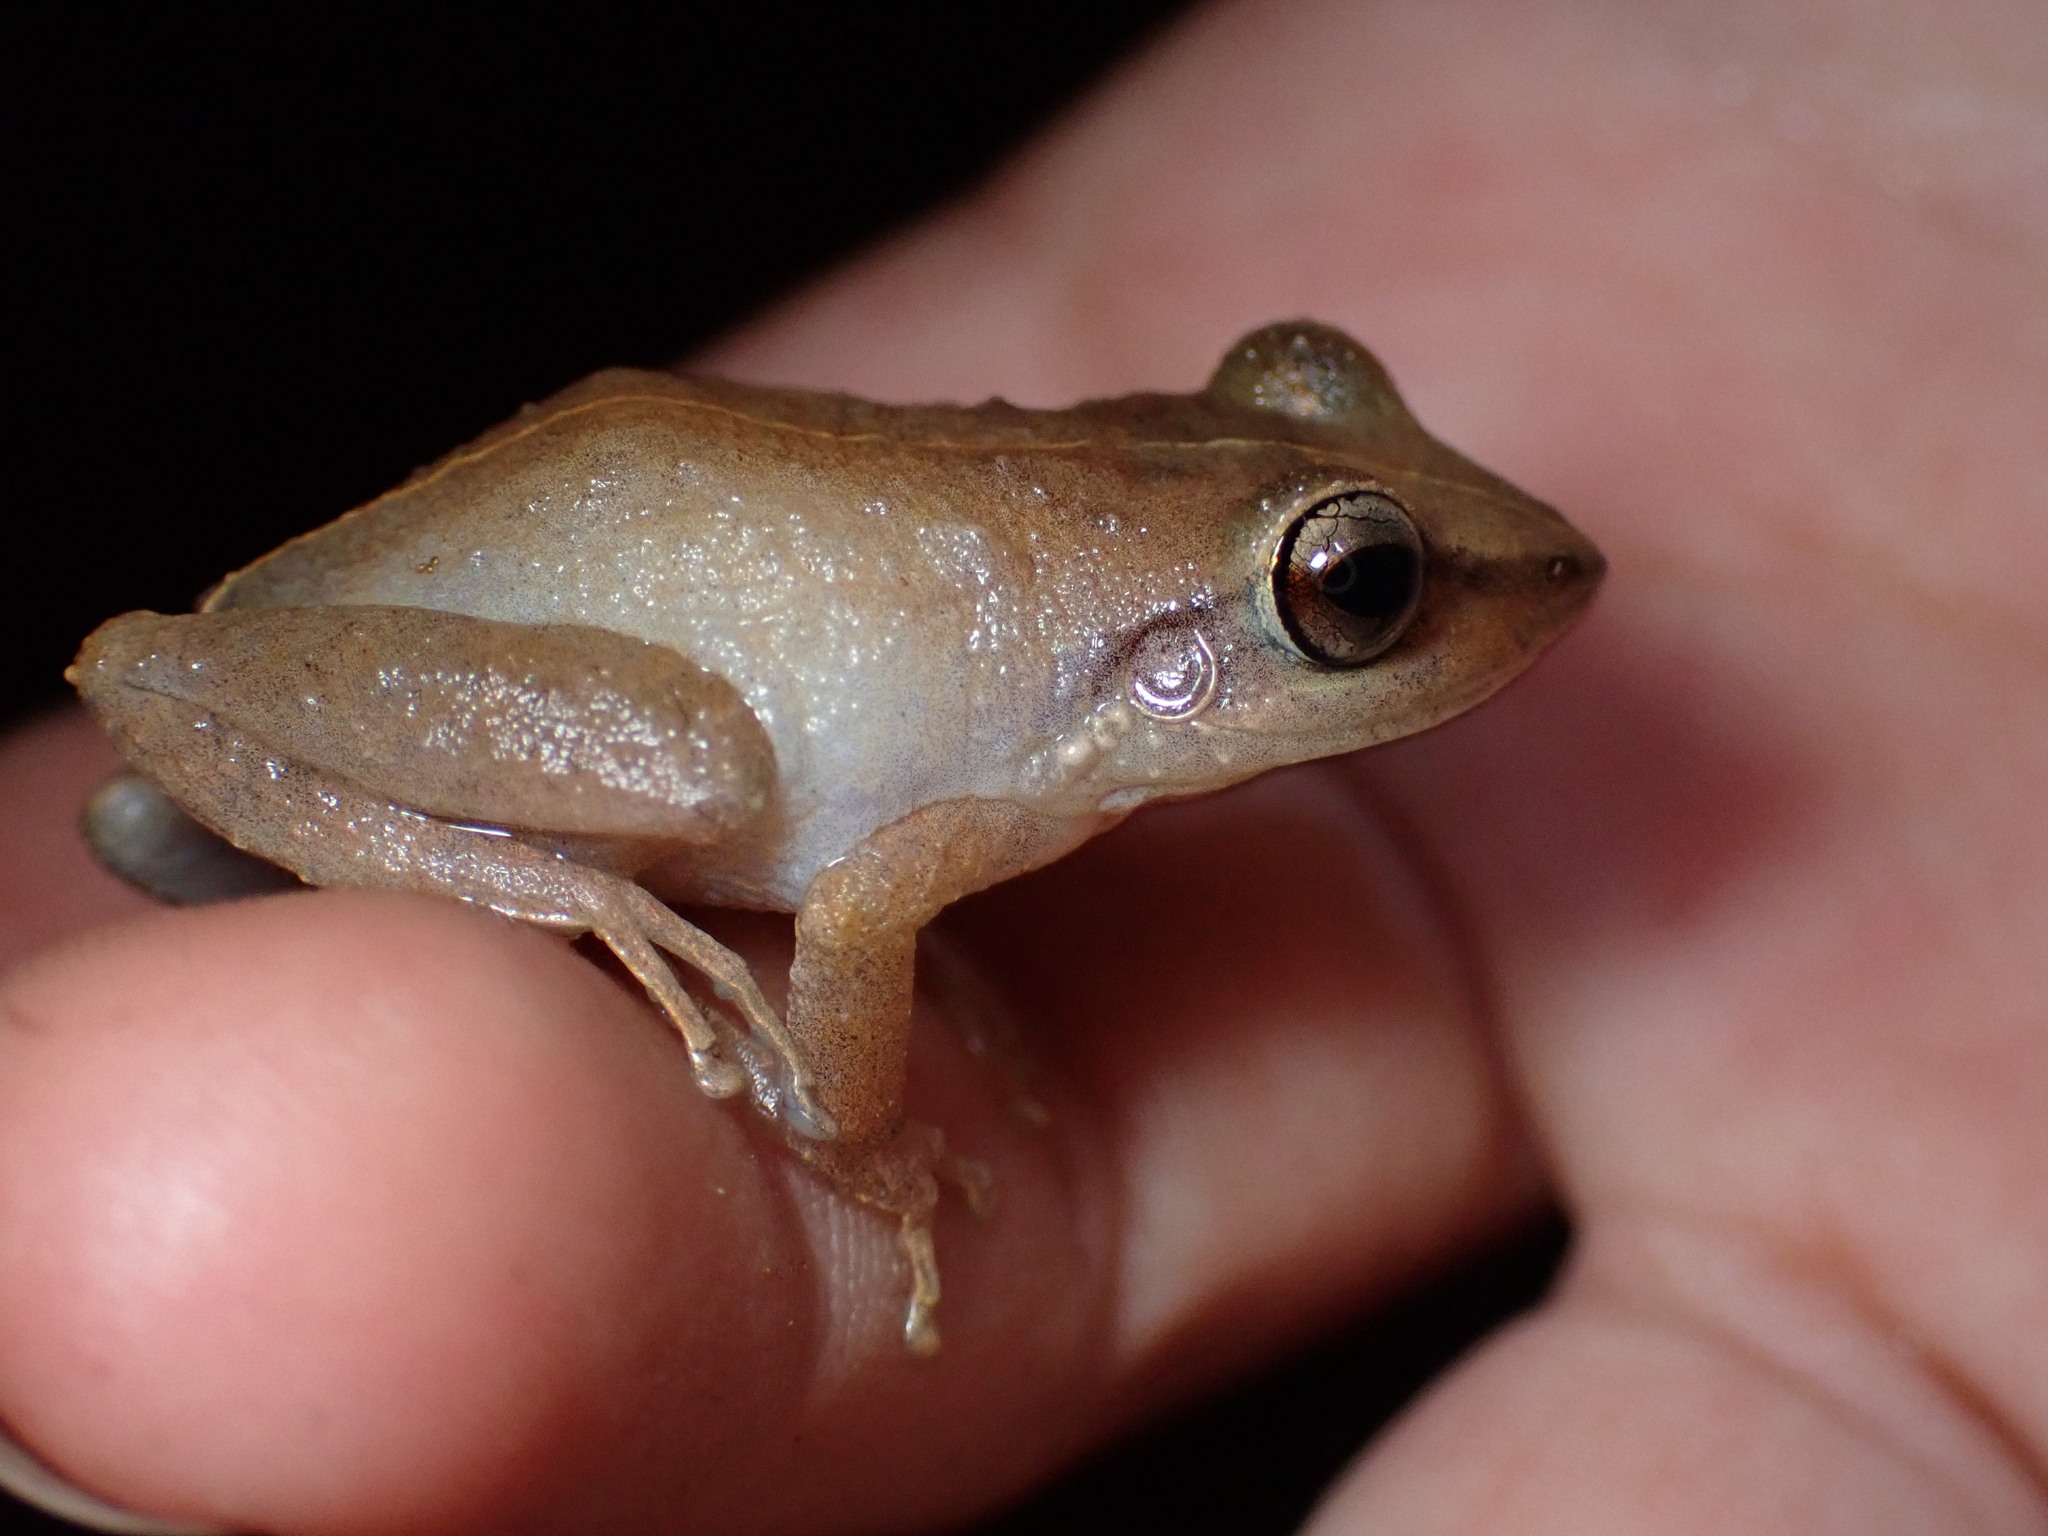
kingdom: Animalia
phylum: Chordata
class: Amphibia
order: Anura
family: Eleutherodactylidae
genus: Eleutherodactylus
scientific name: Eleutherodactylus coqui
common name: Coqui frog
